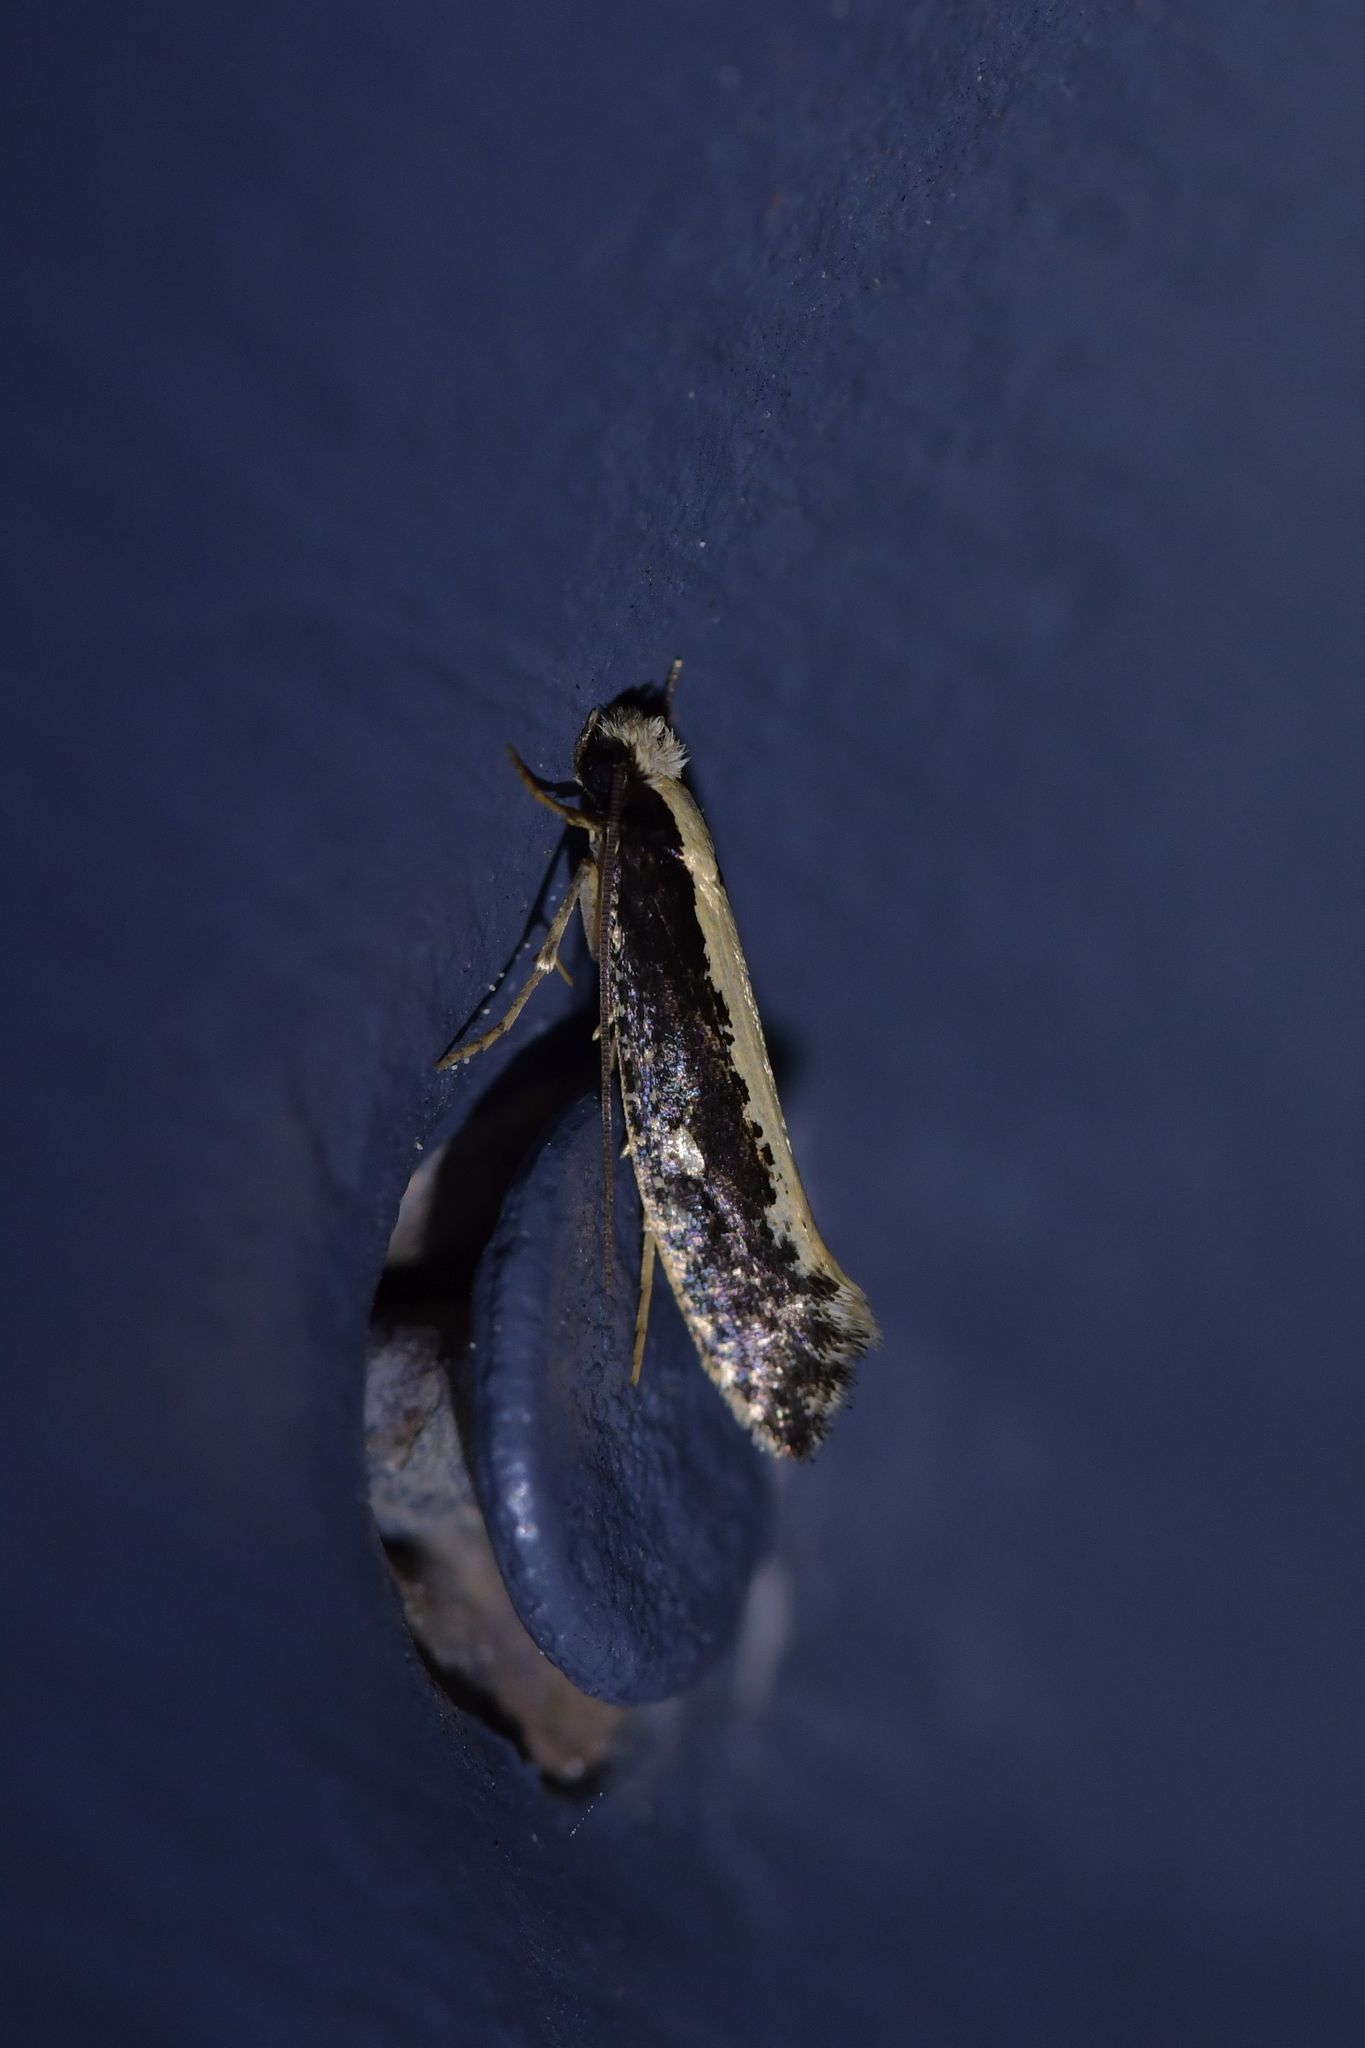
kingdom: Animalia
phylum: Arthropoda
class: Insecta
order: Lepidoptera
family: Tineidae
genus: Monopis
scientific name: Monopis ethelella
